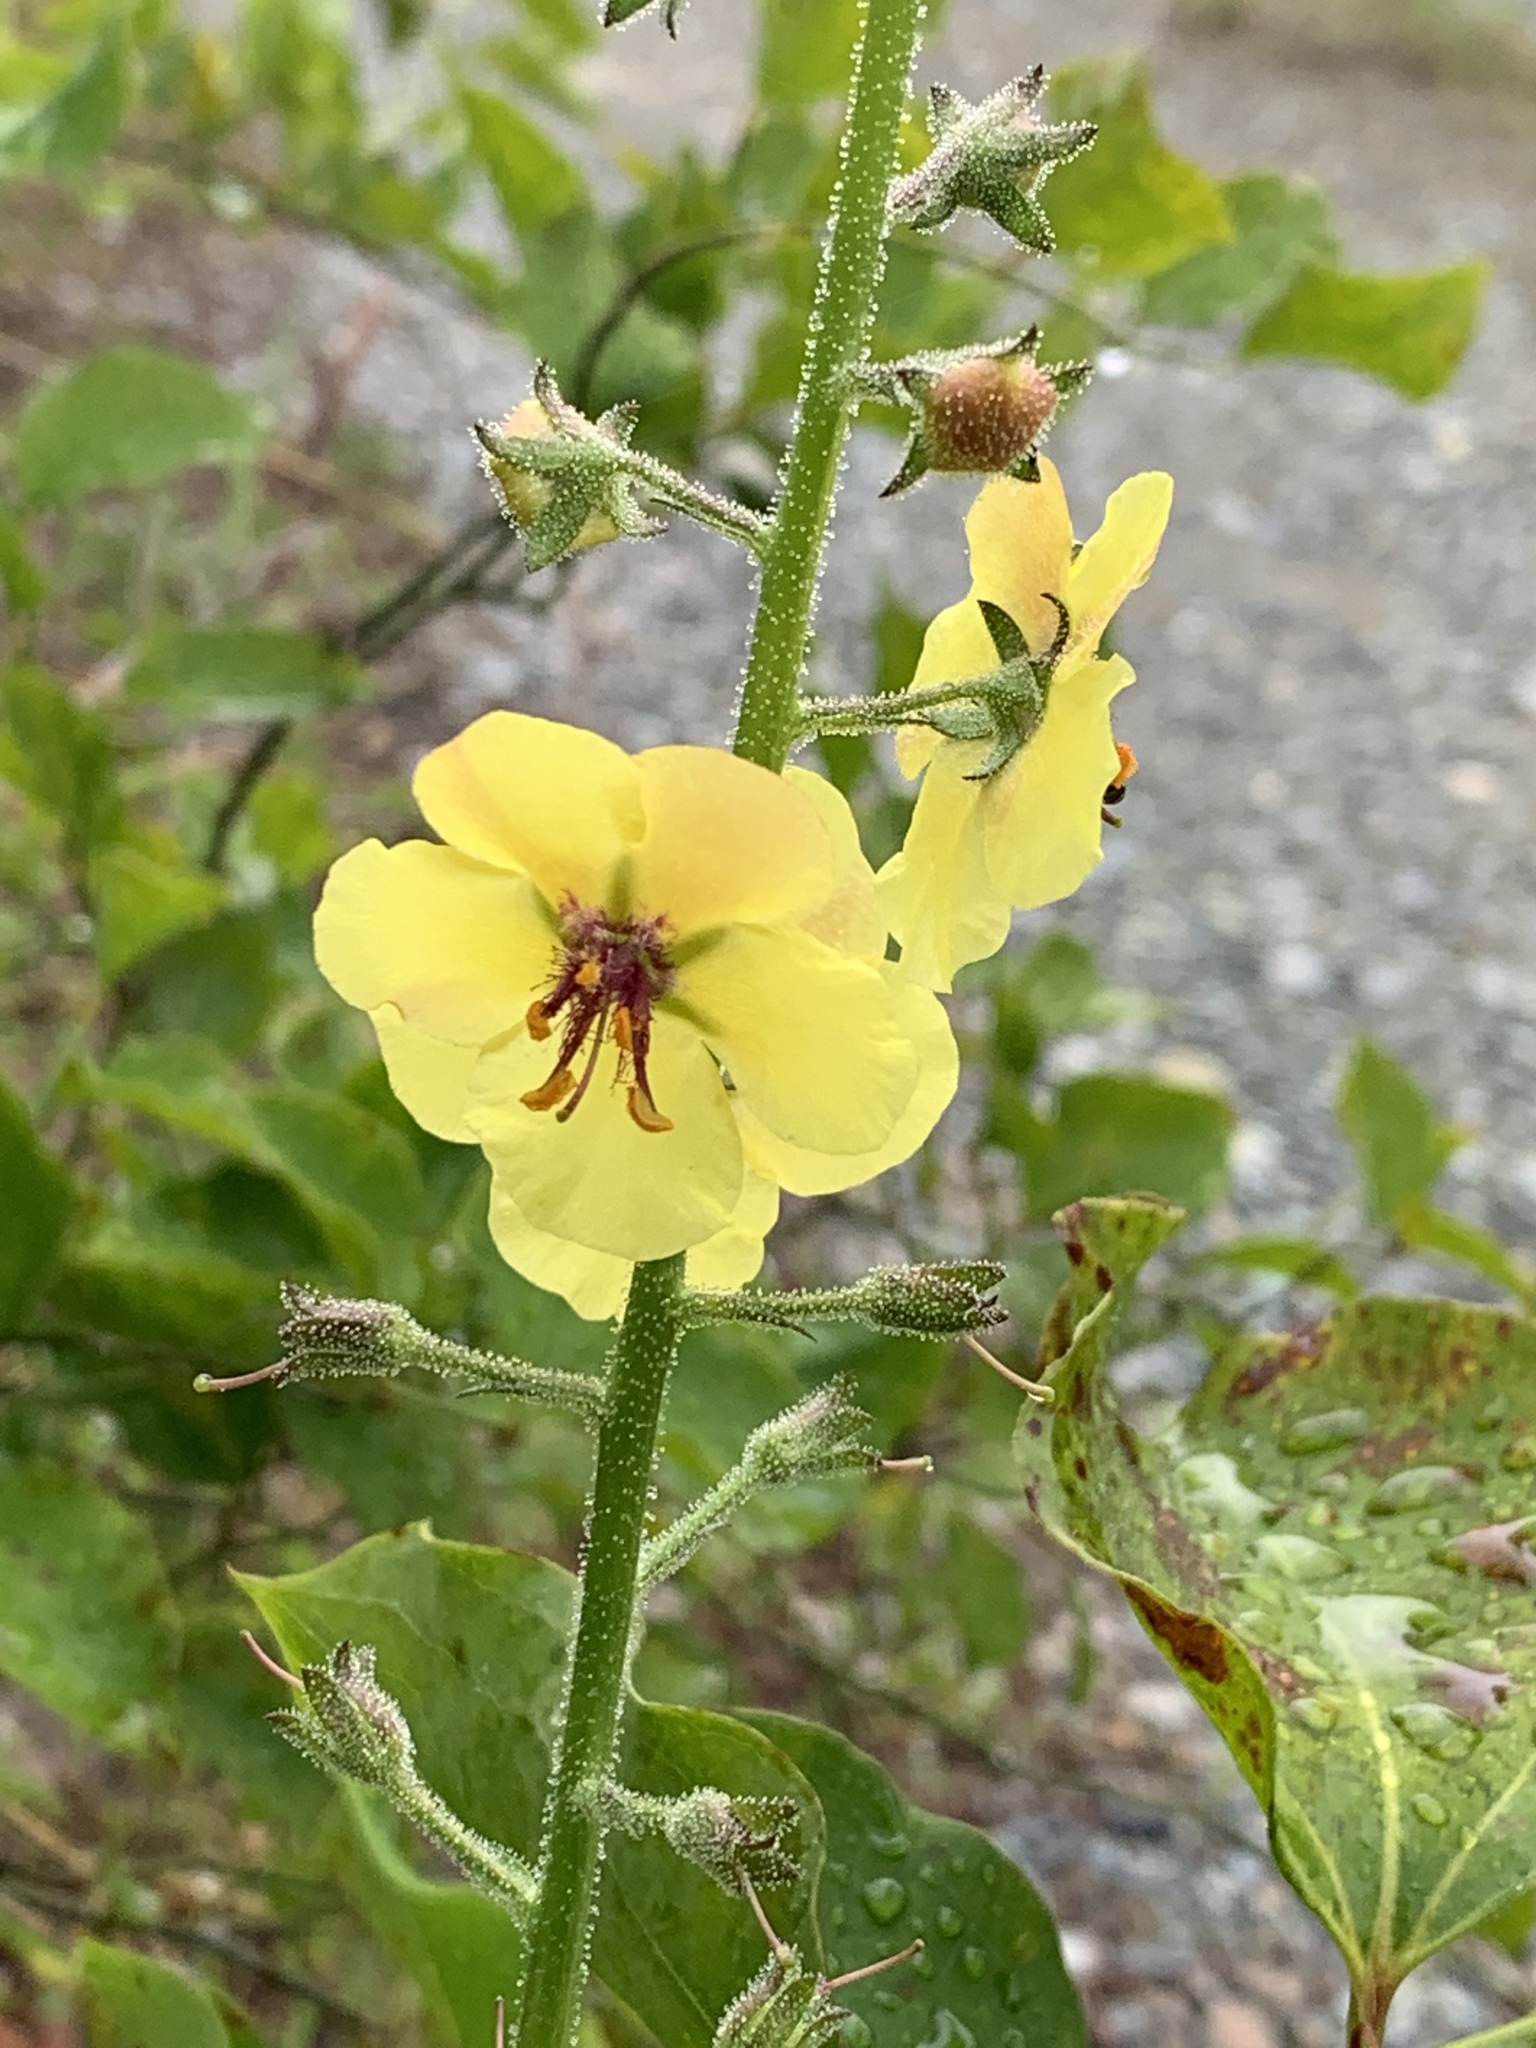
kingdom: Plantae
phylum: Tracheophyta
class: Magnoliopsida
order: Lamiales
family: Scrophulariaceae
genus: Verbascum
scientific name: Verbascum blattaria
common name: Moth mullein
